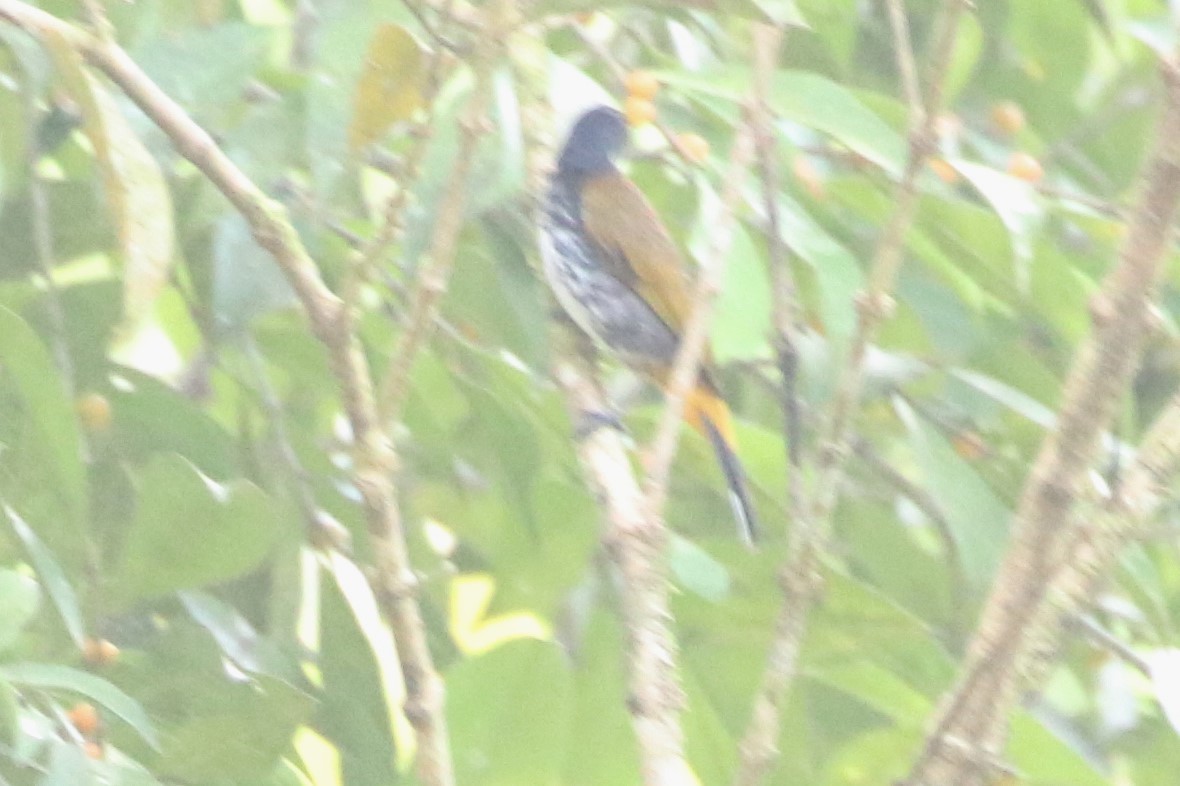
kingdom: Animalia
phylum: Chordata
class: Aves
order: Passeriformes
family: Pycnonotidae
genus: Rubigula
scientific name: Rubigula squamatus
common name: Scaly-breasted bulbul
